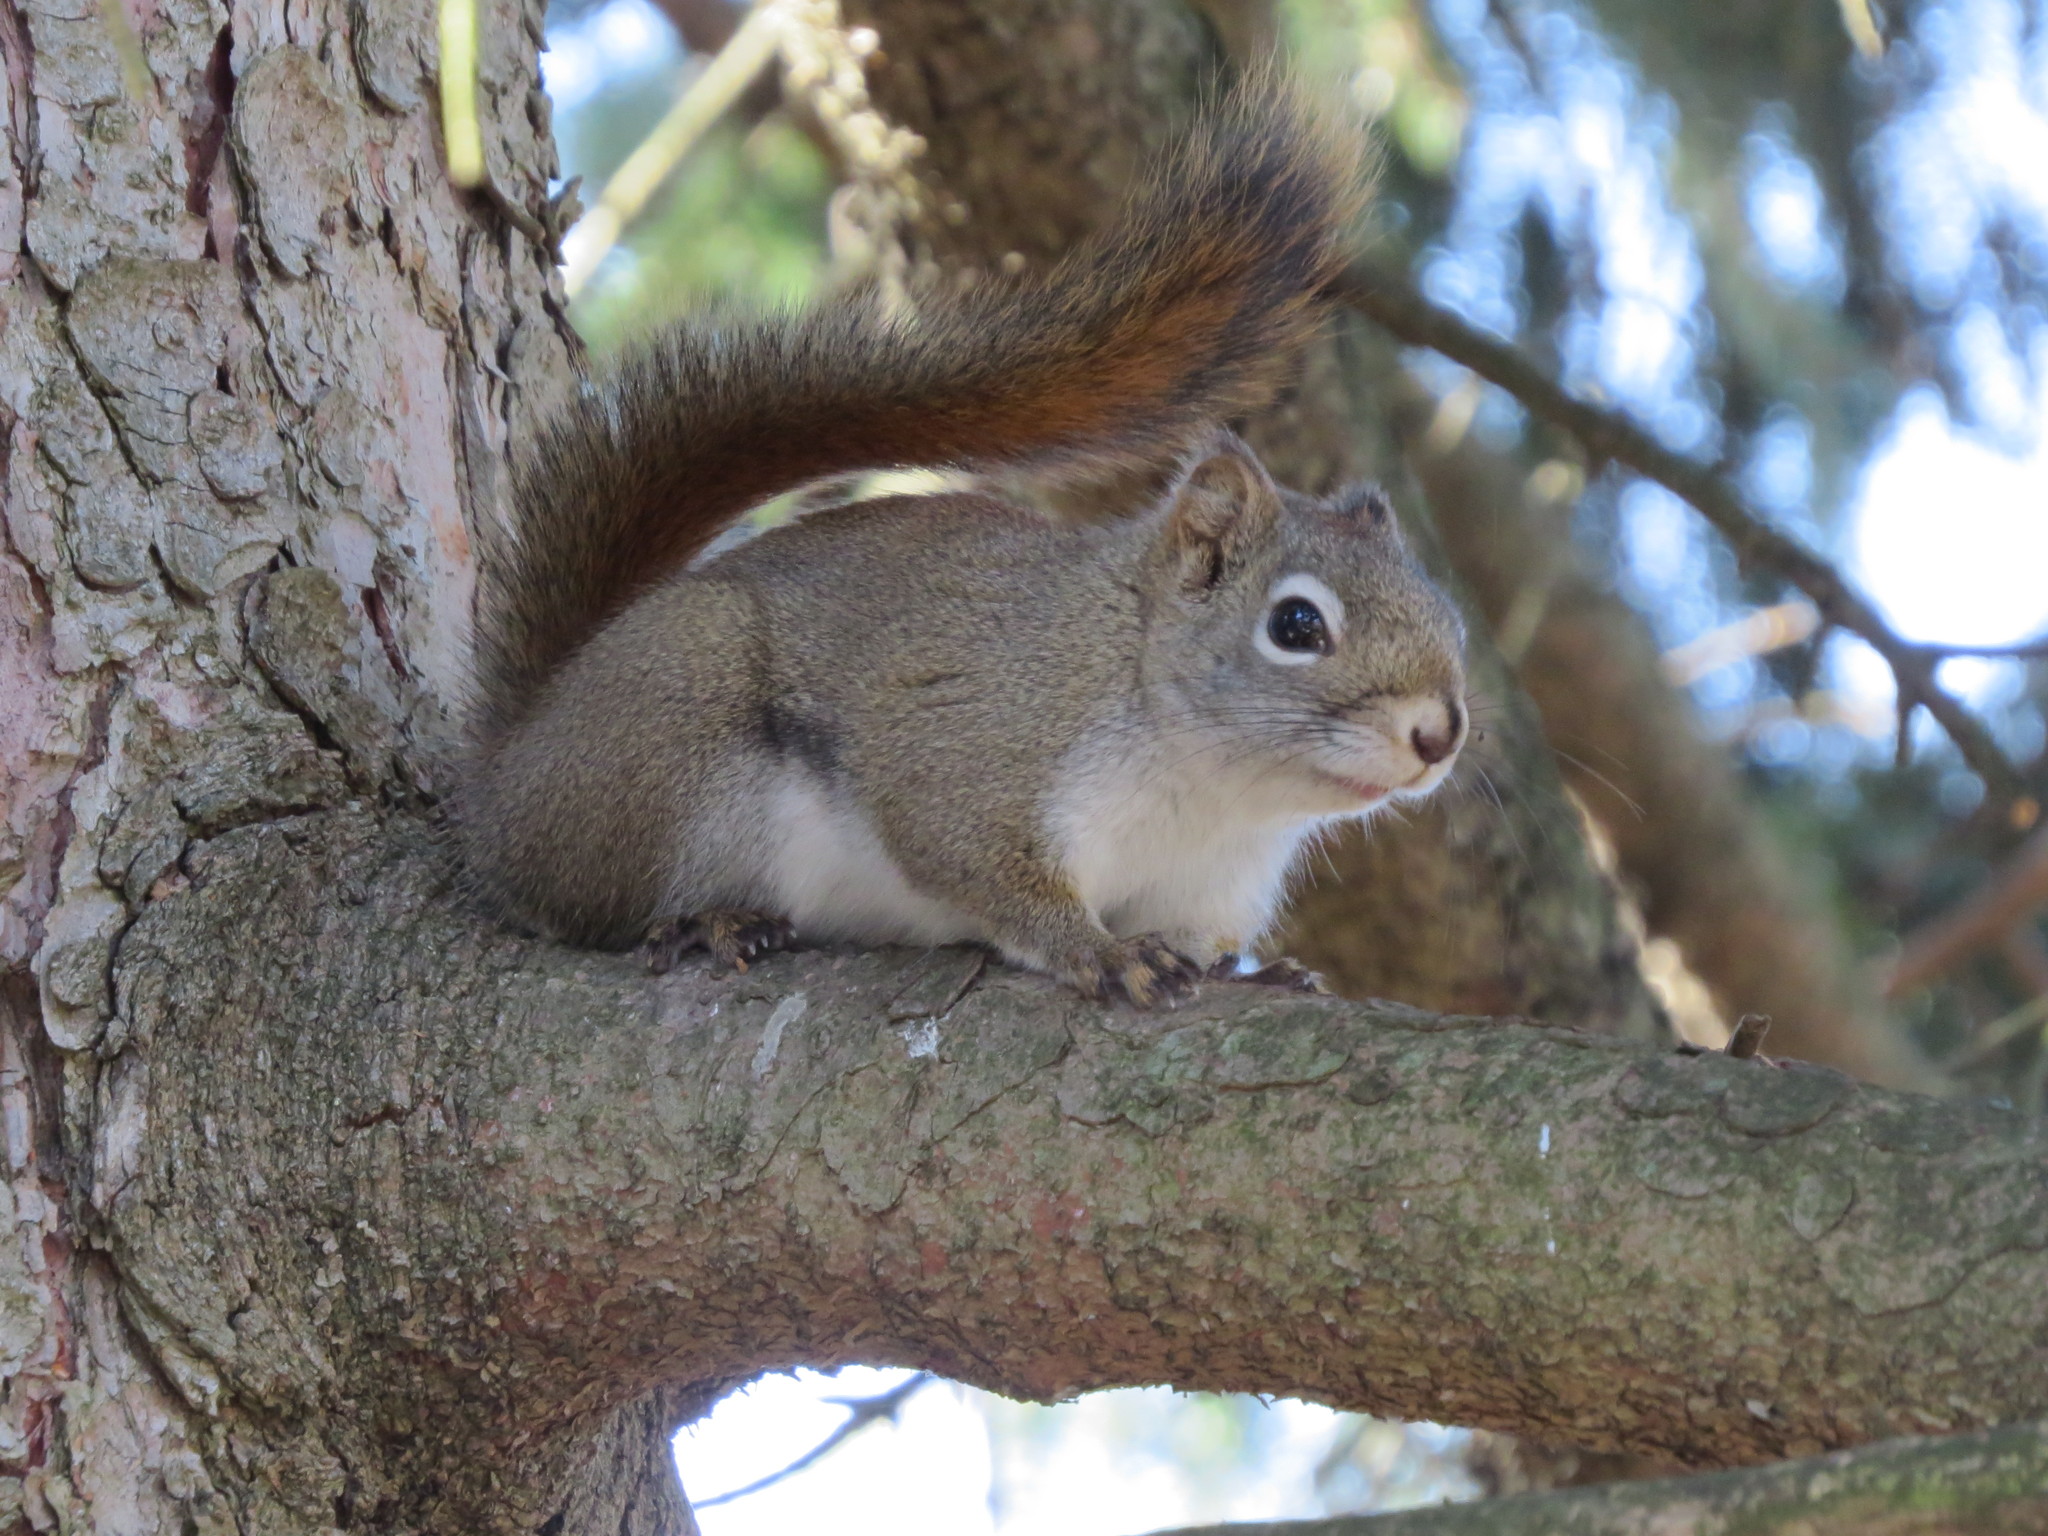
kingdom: Animalia
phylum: Chordata
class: Mammalia
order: Rodentia
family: Sciuridae
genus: Tamiasciurus
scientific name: Tamiasciurus hudsonicus
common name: Red squirrel
